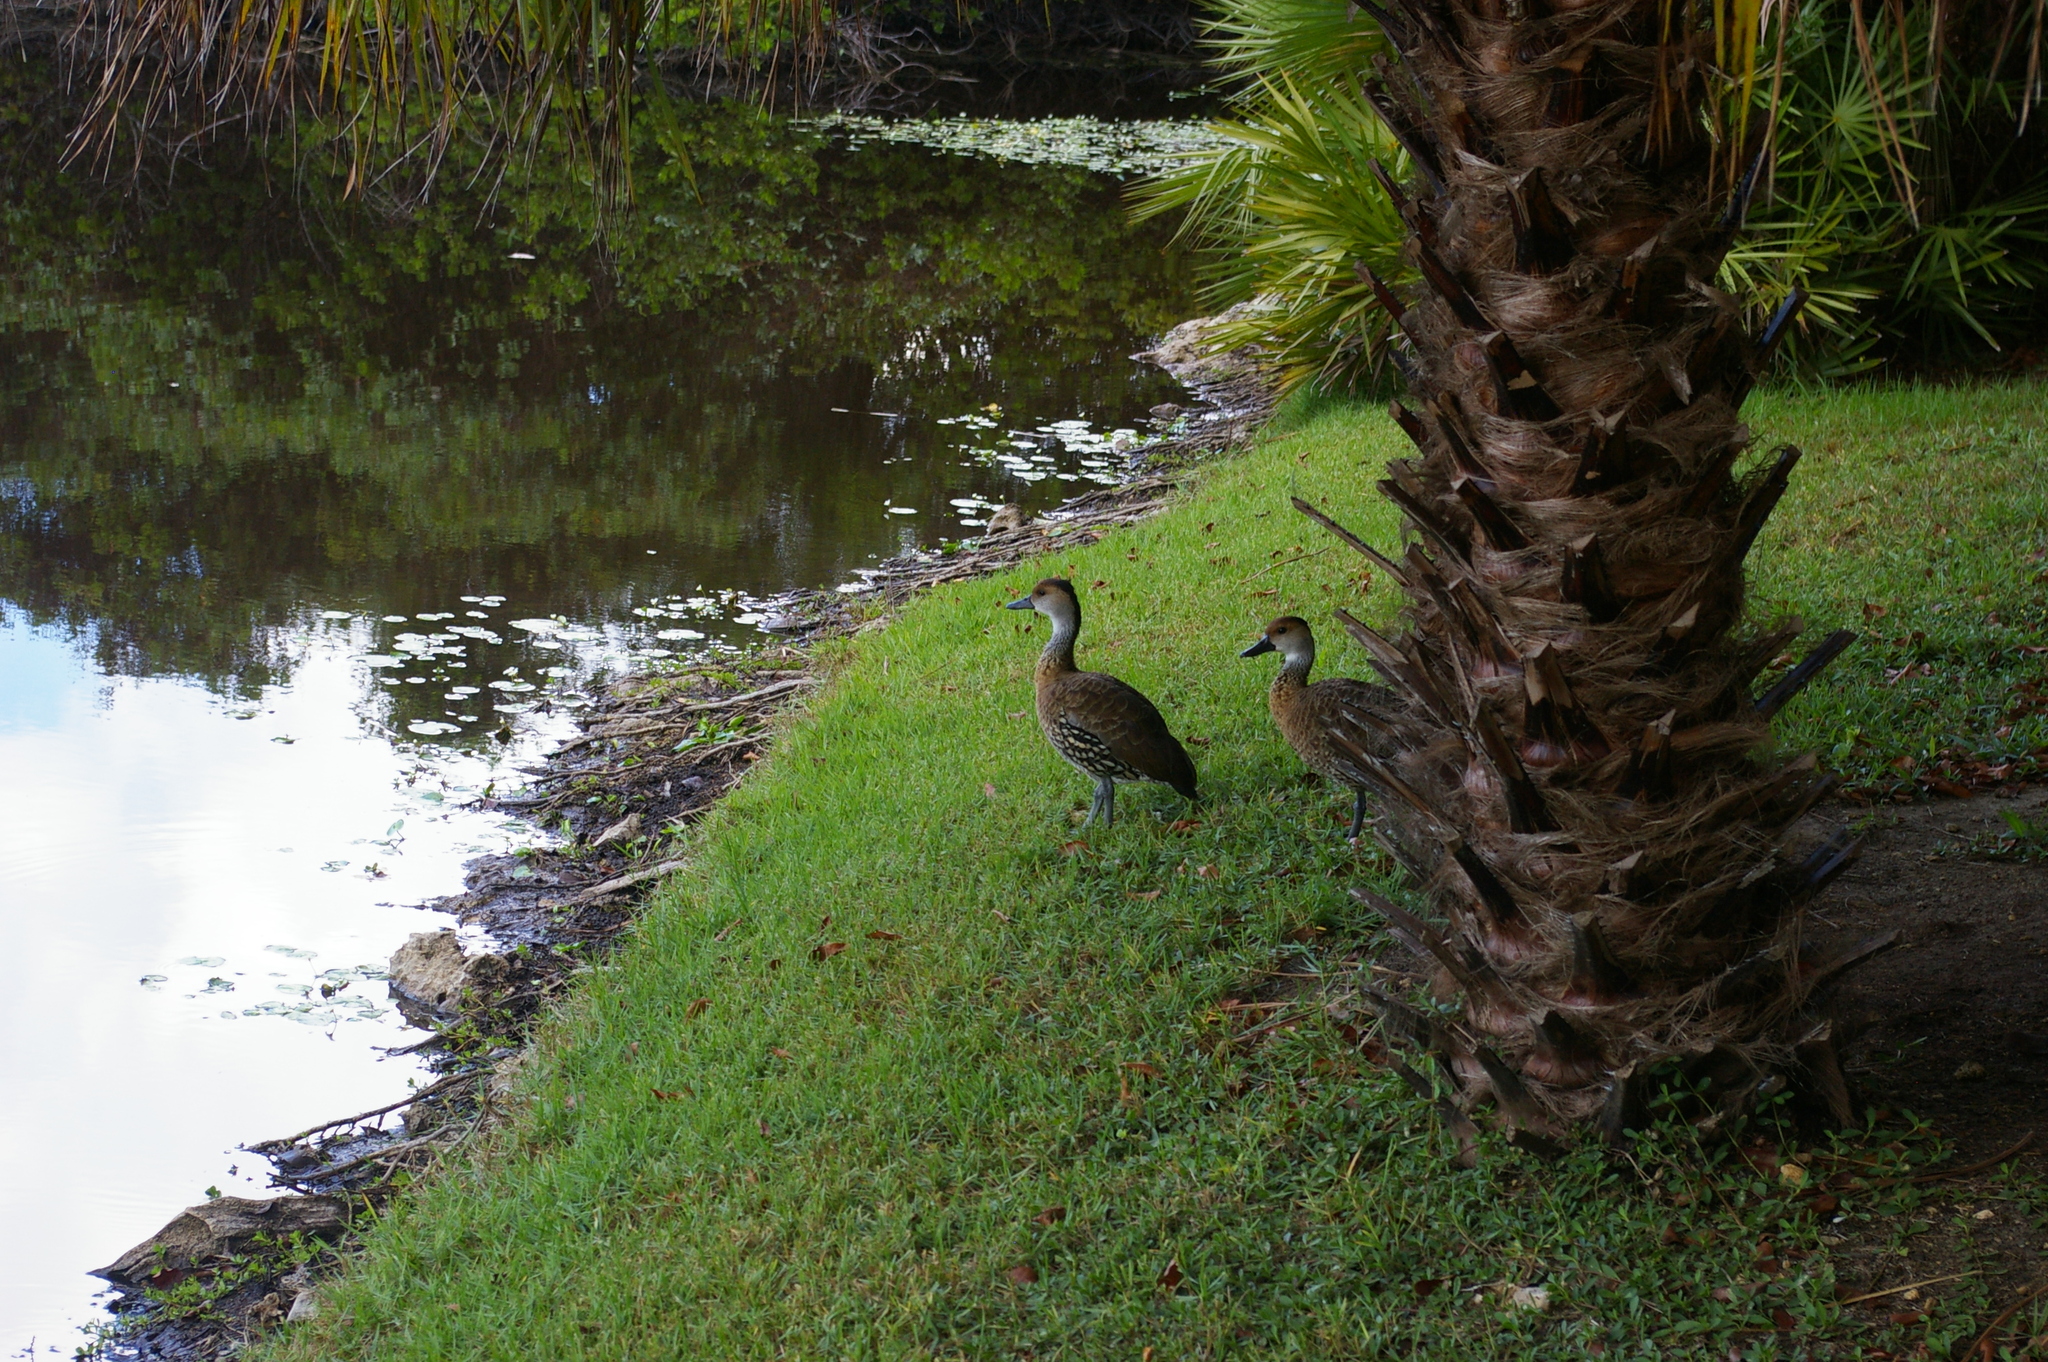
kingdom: Animalia
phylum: Chordata
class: Aves
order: Anseriformes
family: Anatidae
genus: Dendrocygna
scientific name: Dendrocygna arborea
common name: West indian whistling duck
